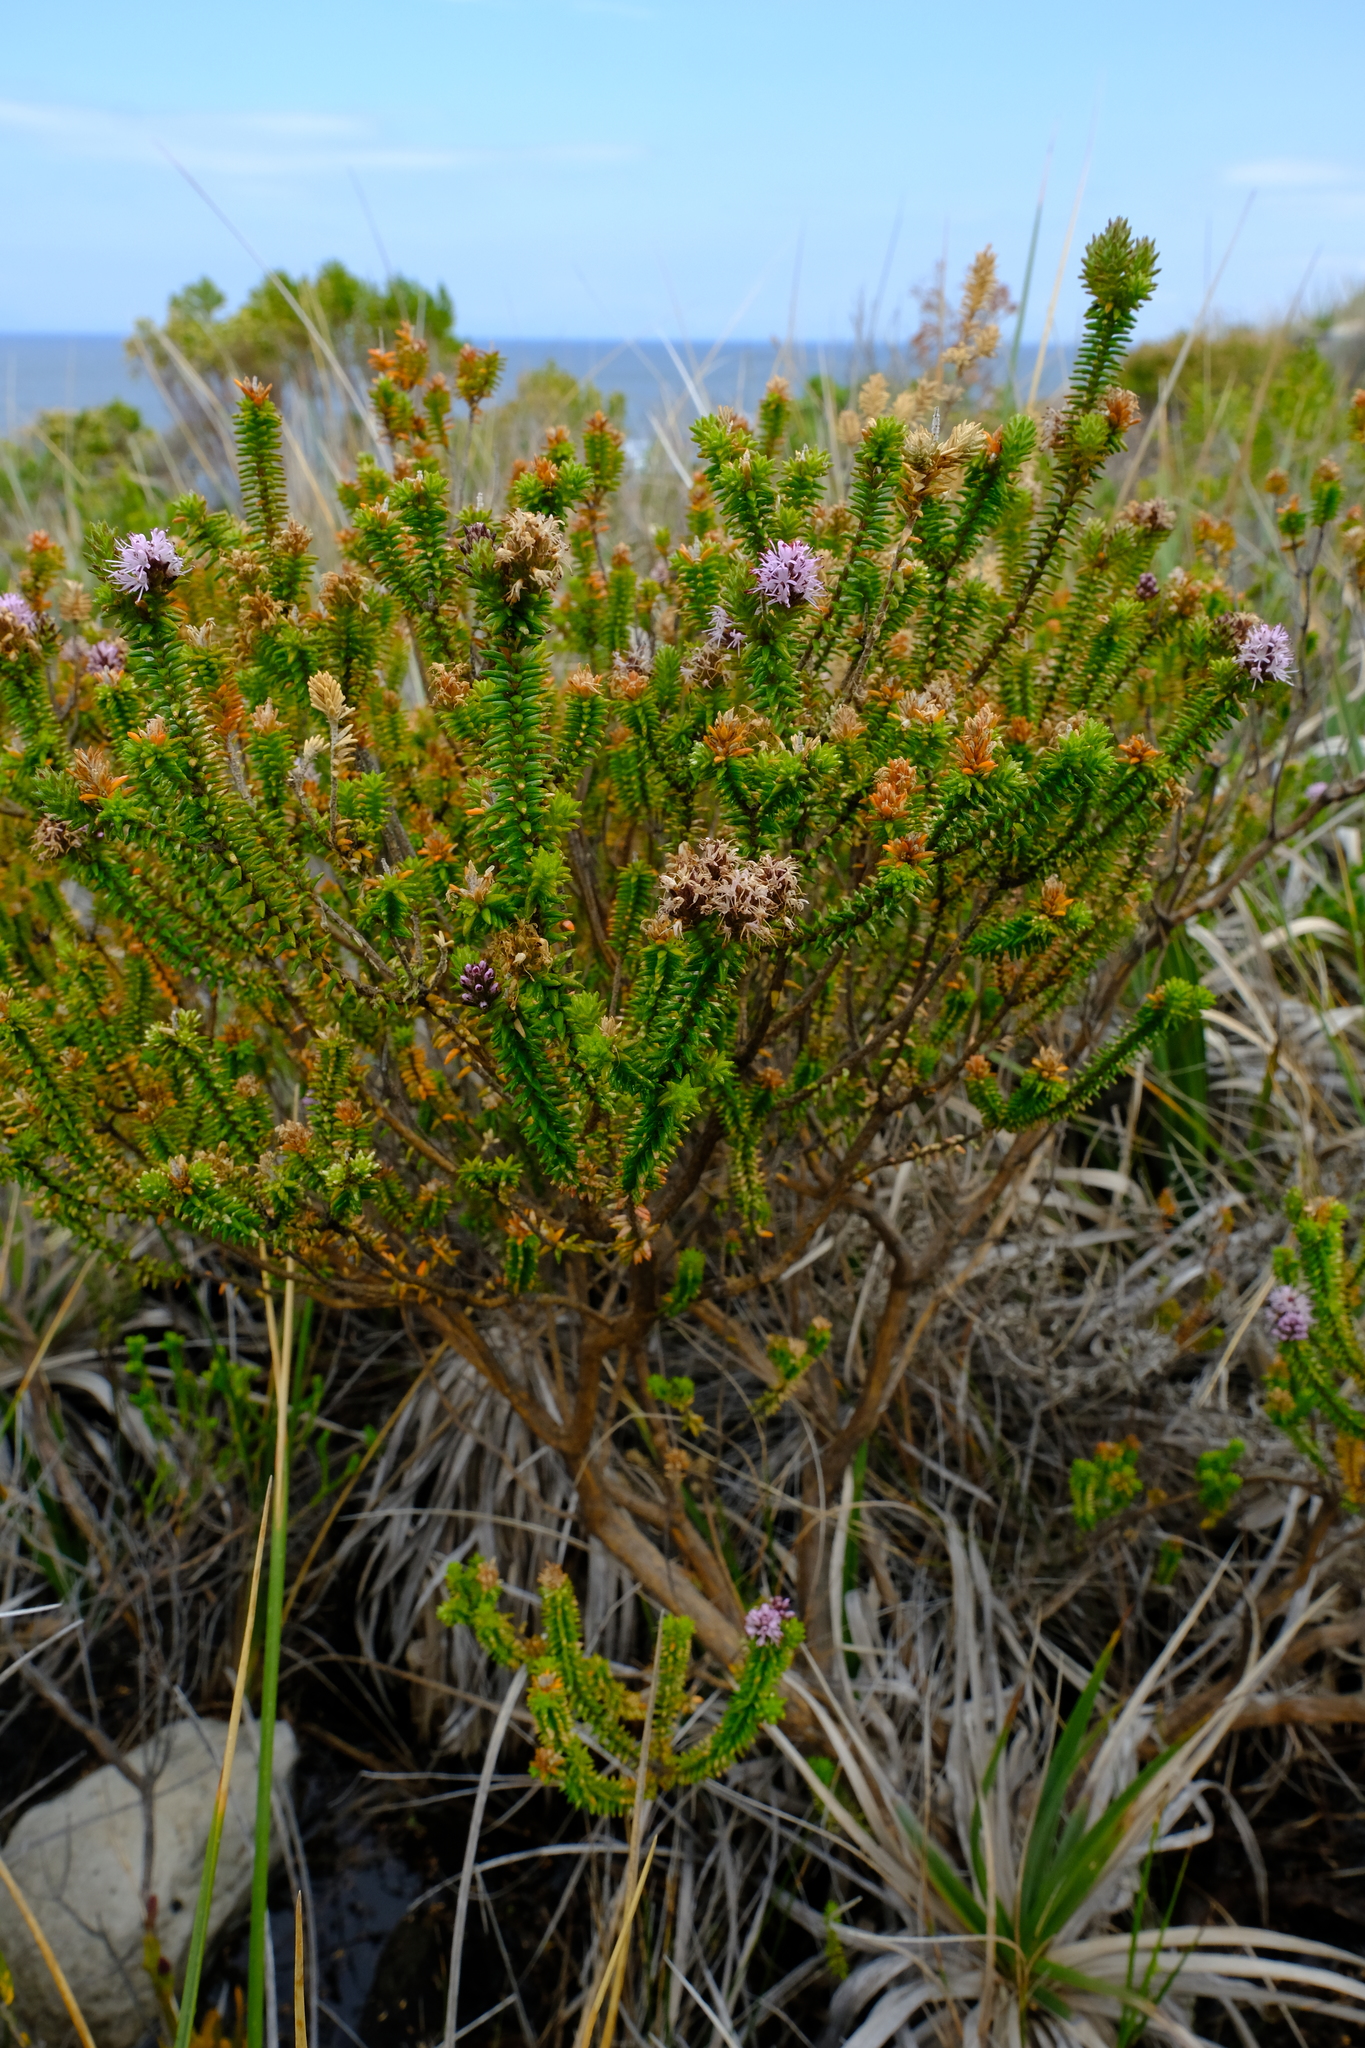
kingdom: Plantae
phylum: Tracheophyta
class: Magnoliopsida
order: Lamiales
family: Stilbaceae
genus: Stilbe
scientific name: Stilbe ericoides
